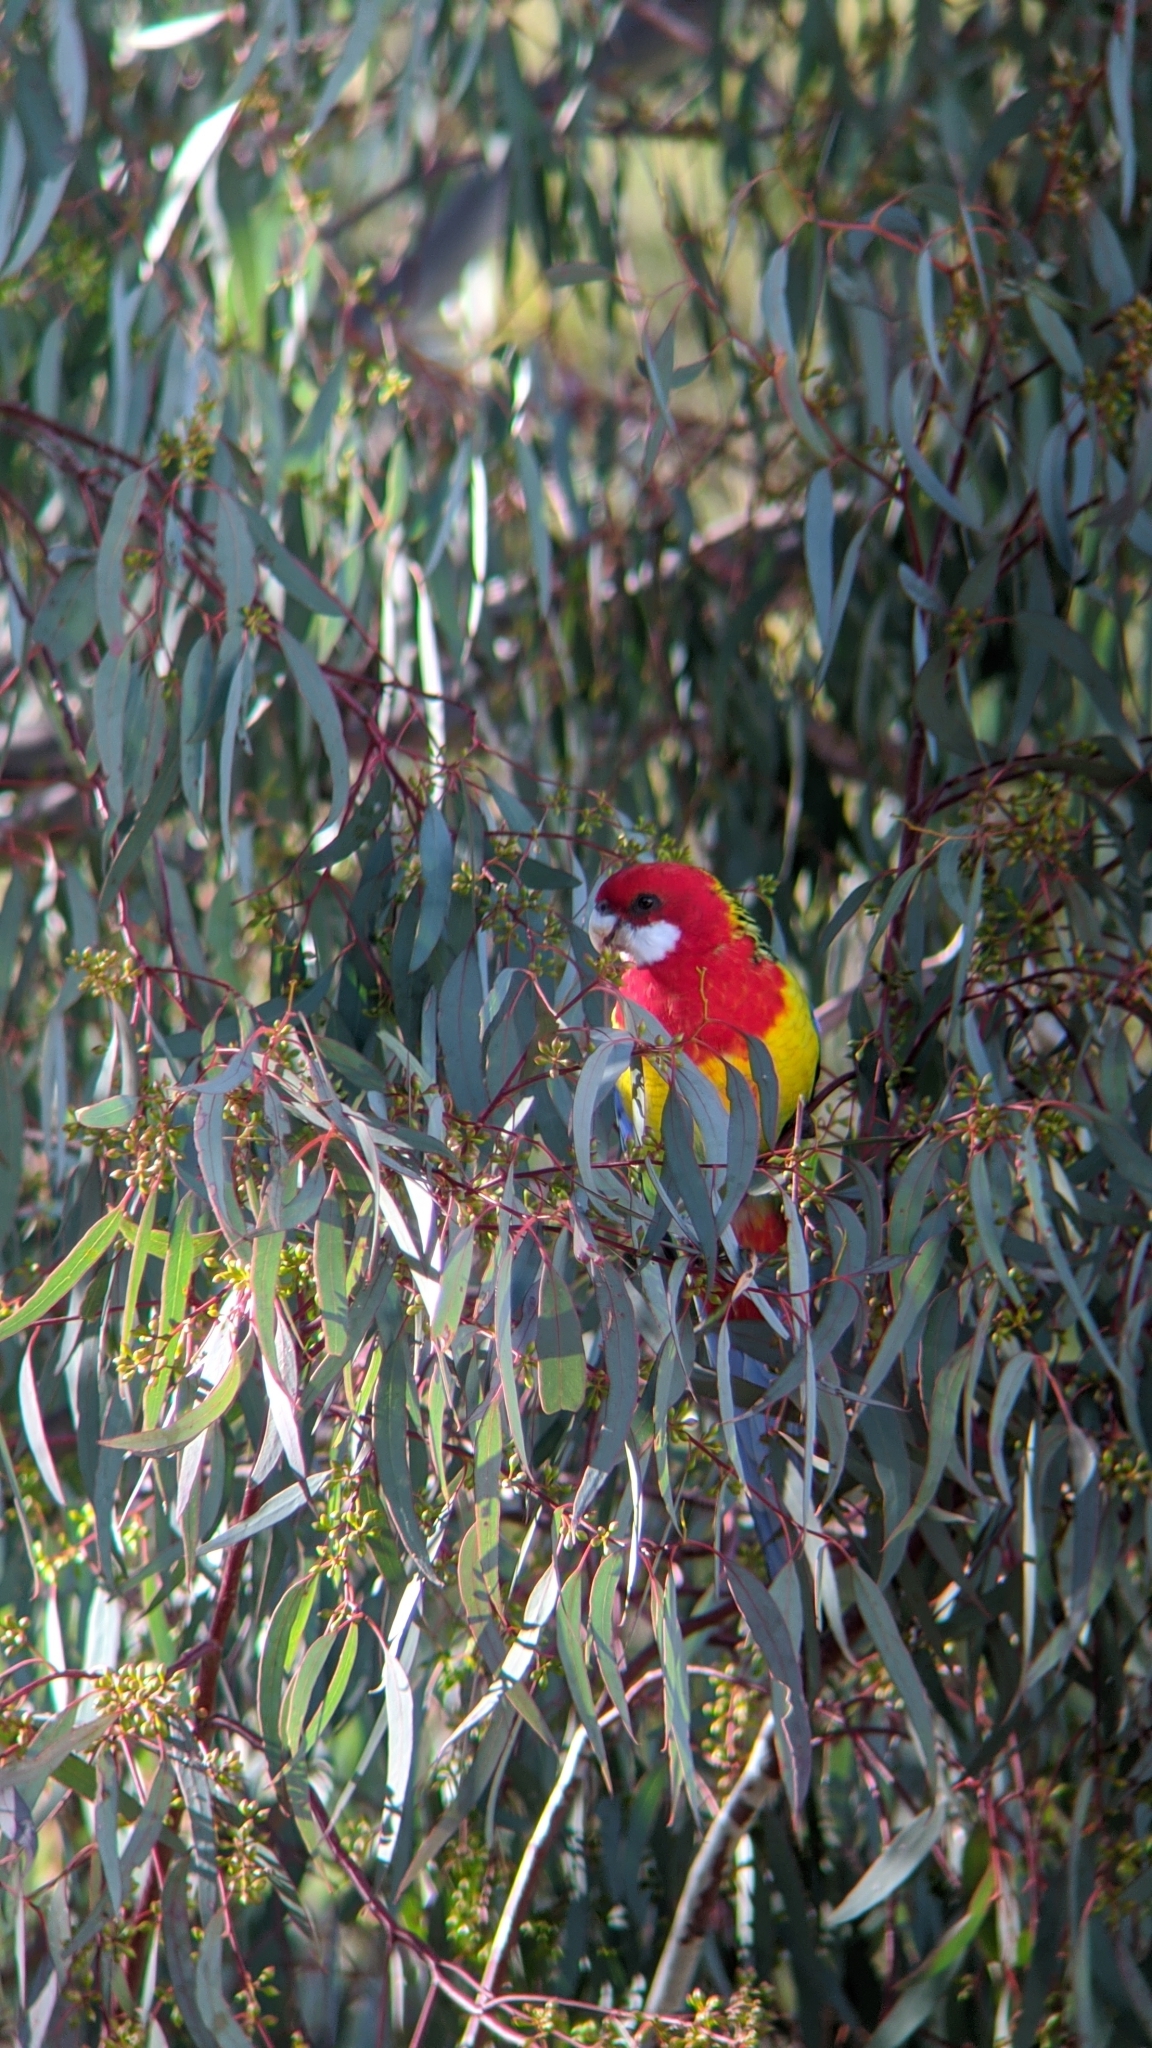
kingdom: Animalia
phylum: Chordata
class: Aves
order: Psittaciformes
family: Psittacidae
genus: Platycercus
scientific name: Platycercus eximius
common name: Eastern rosella
